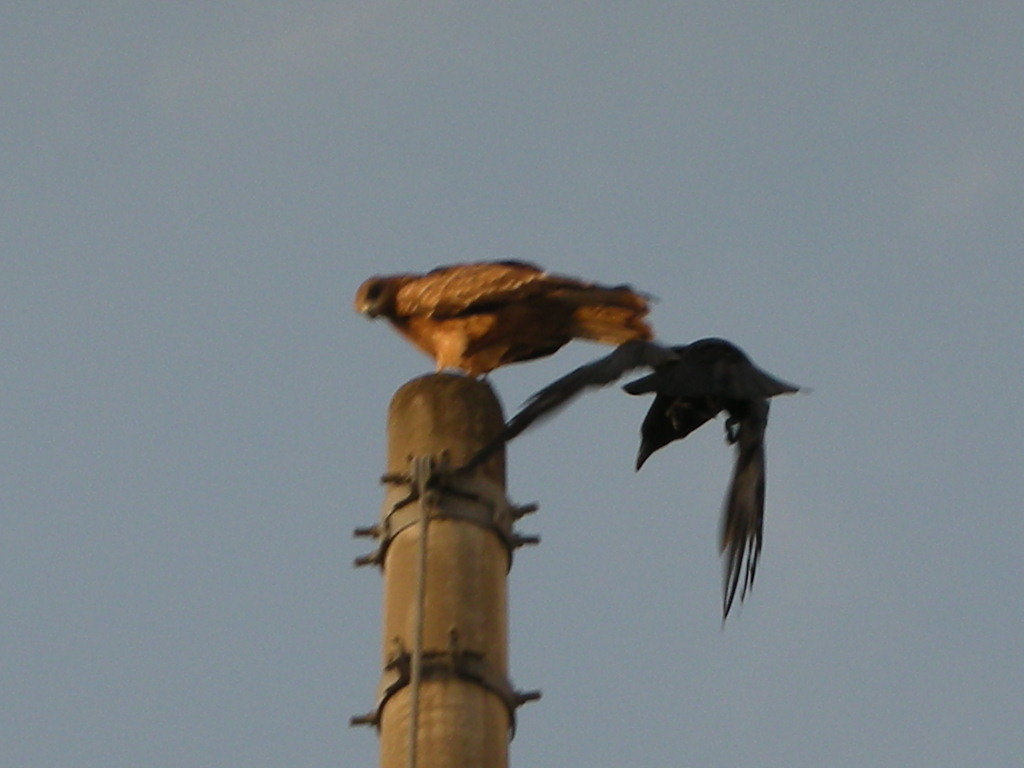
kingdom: Animalia
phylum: Chordata
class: Aves
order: Accipitriformes
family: Accipitridae
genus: Milvus
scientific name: Milvus migrans
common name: Black kite
